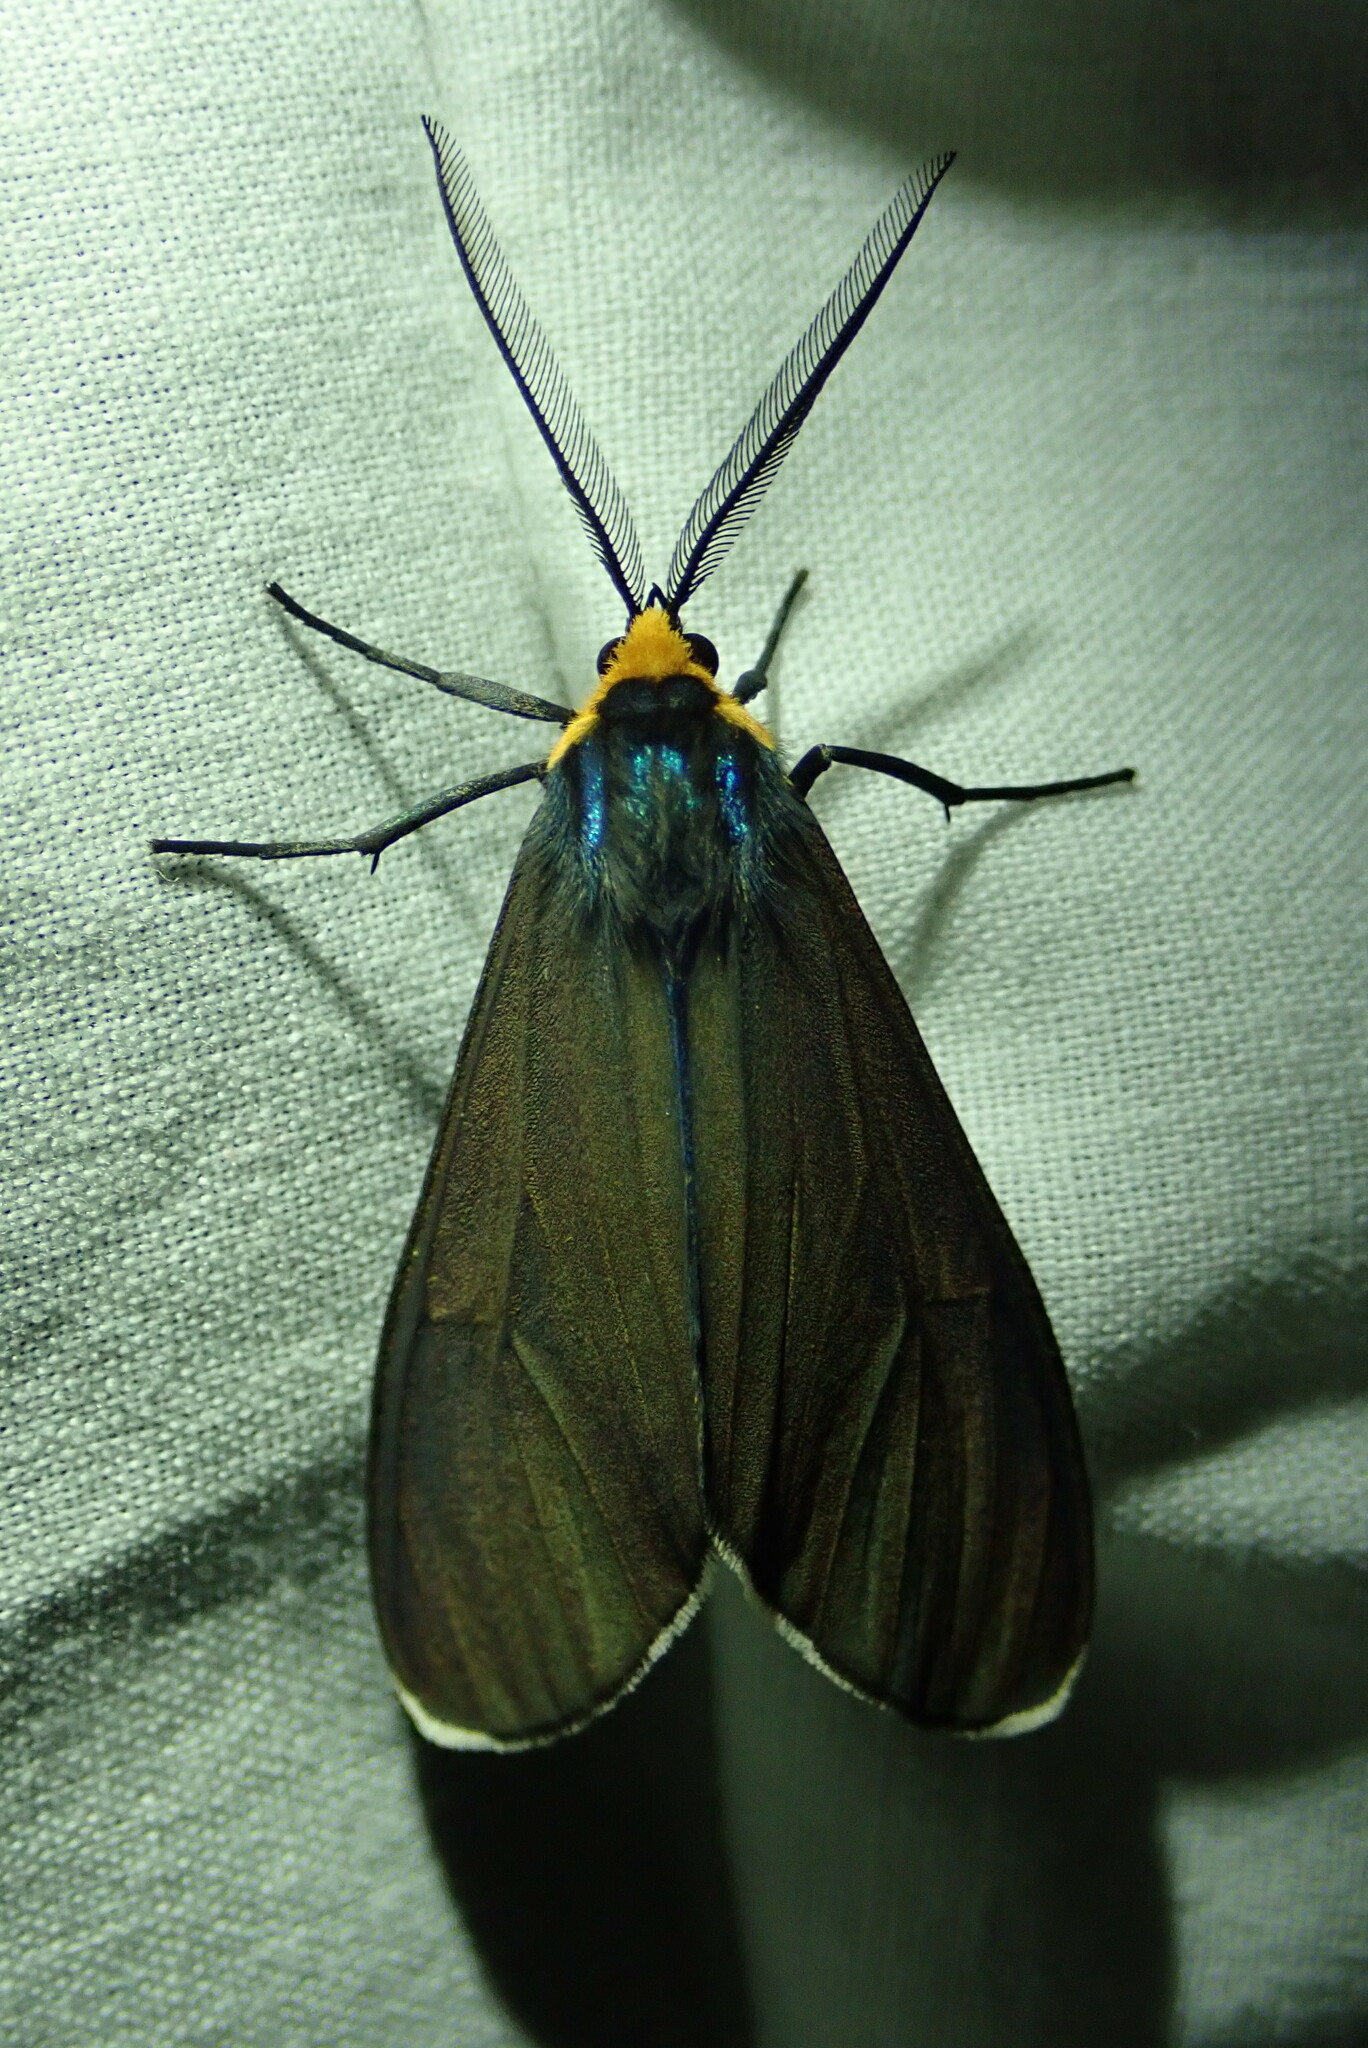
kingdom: Animalia
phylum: Arthropoda
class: Insecta
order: Lepidoptera
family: Erebidae
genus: Ctenucha
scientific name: Ctenucha virginica
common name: Virginia ctenucha moth
